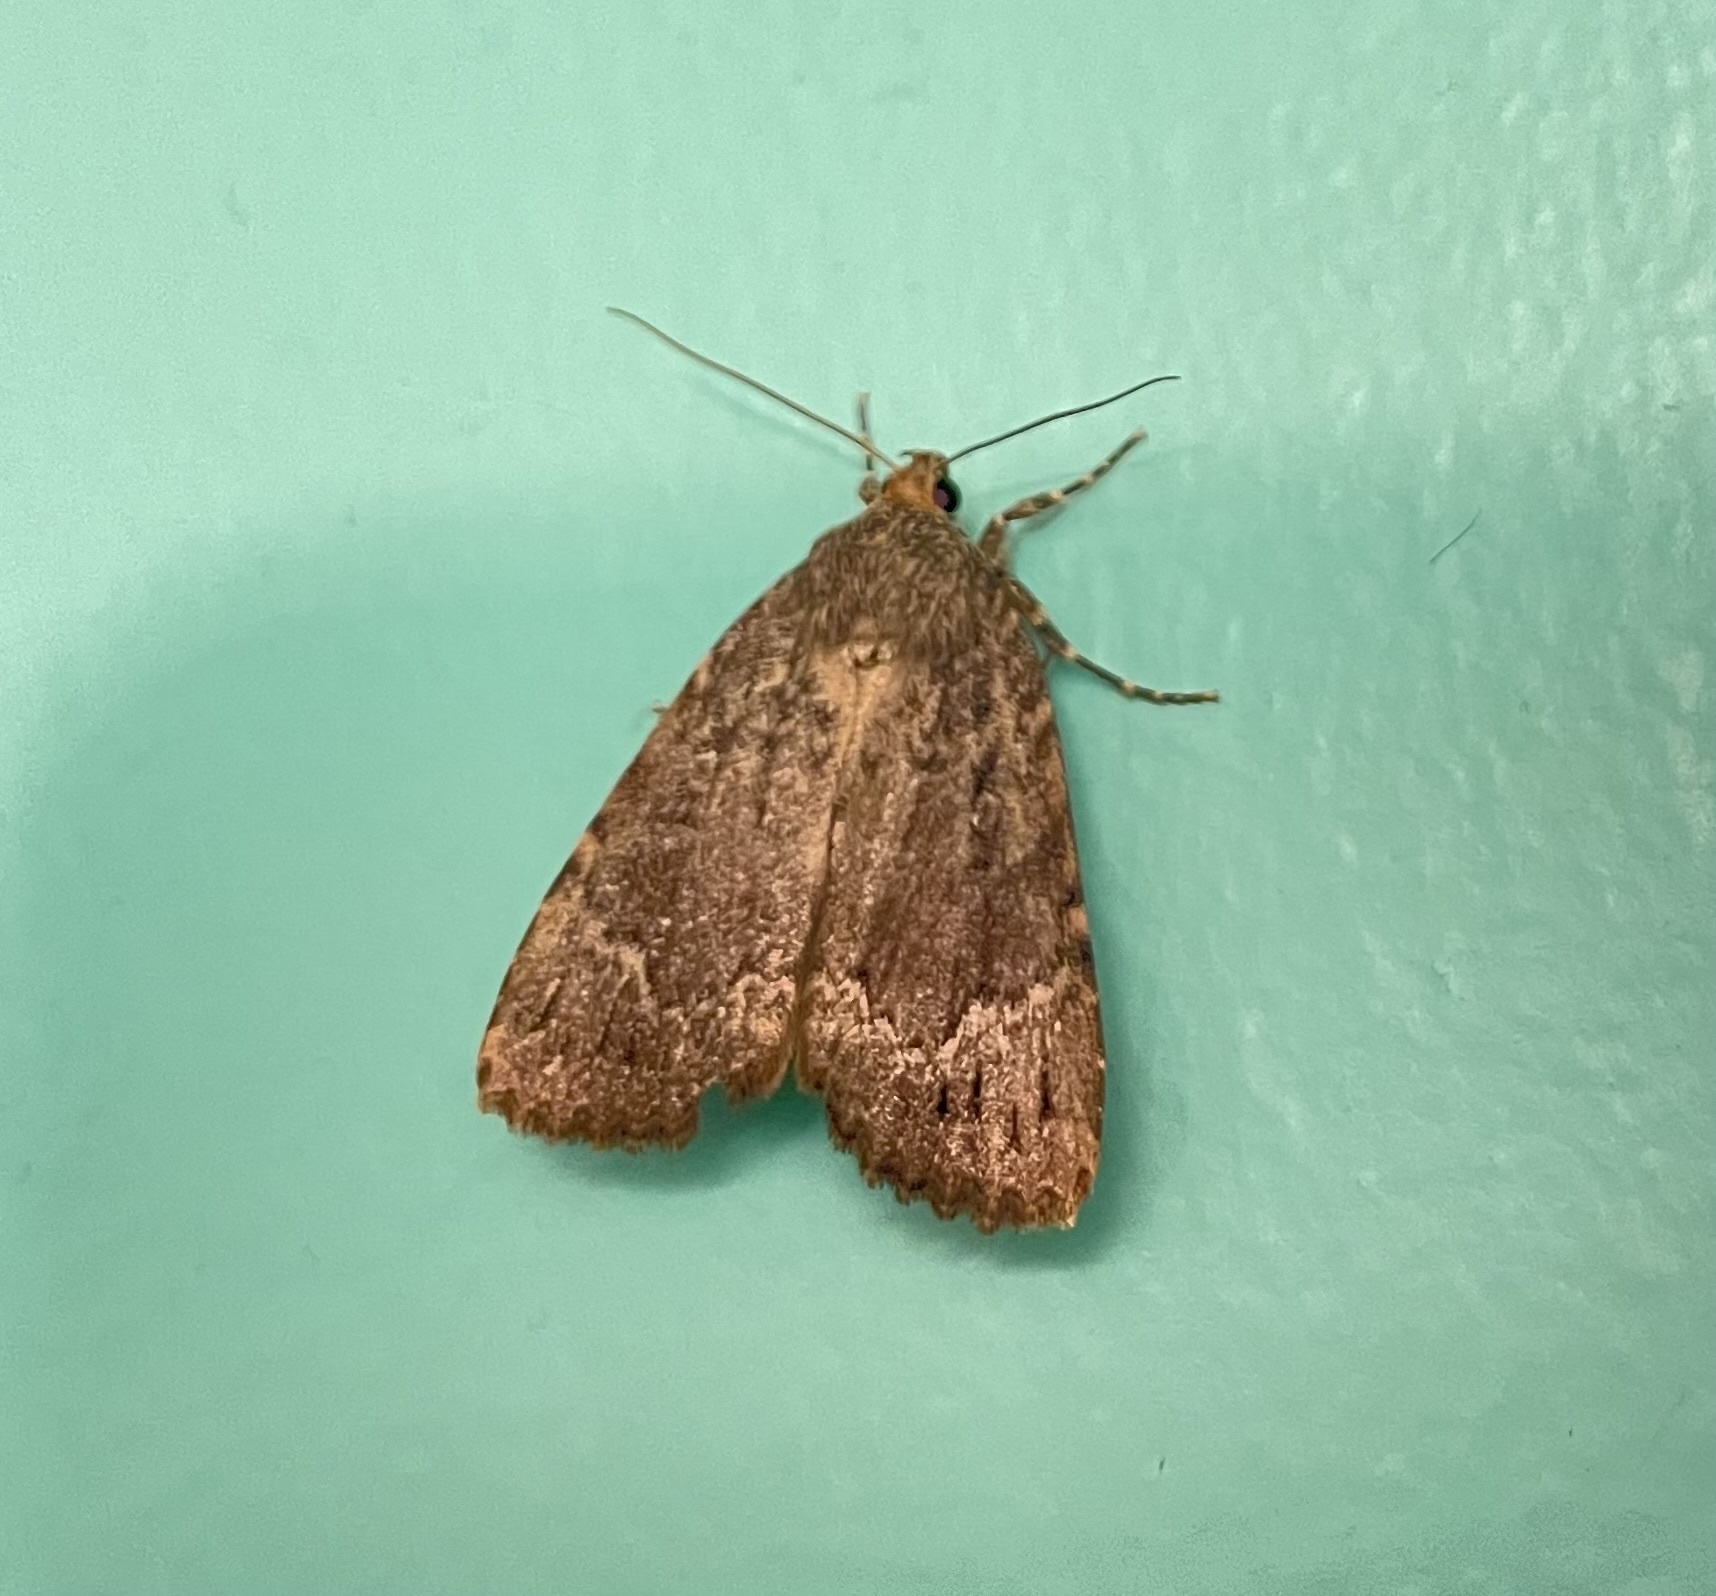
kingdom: Animalia
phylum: Arthropoda
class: Insecta
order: Lepidoptera
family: Noctuidae
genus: Amphipyra
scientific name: Amphipyra pyramidoides
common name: American copper underwing
